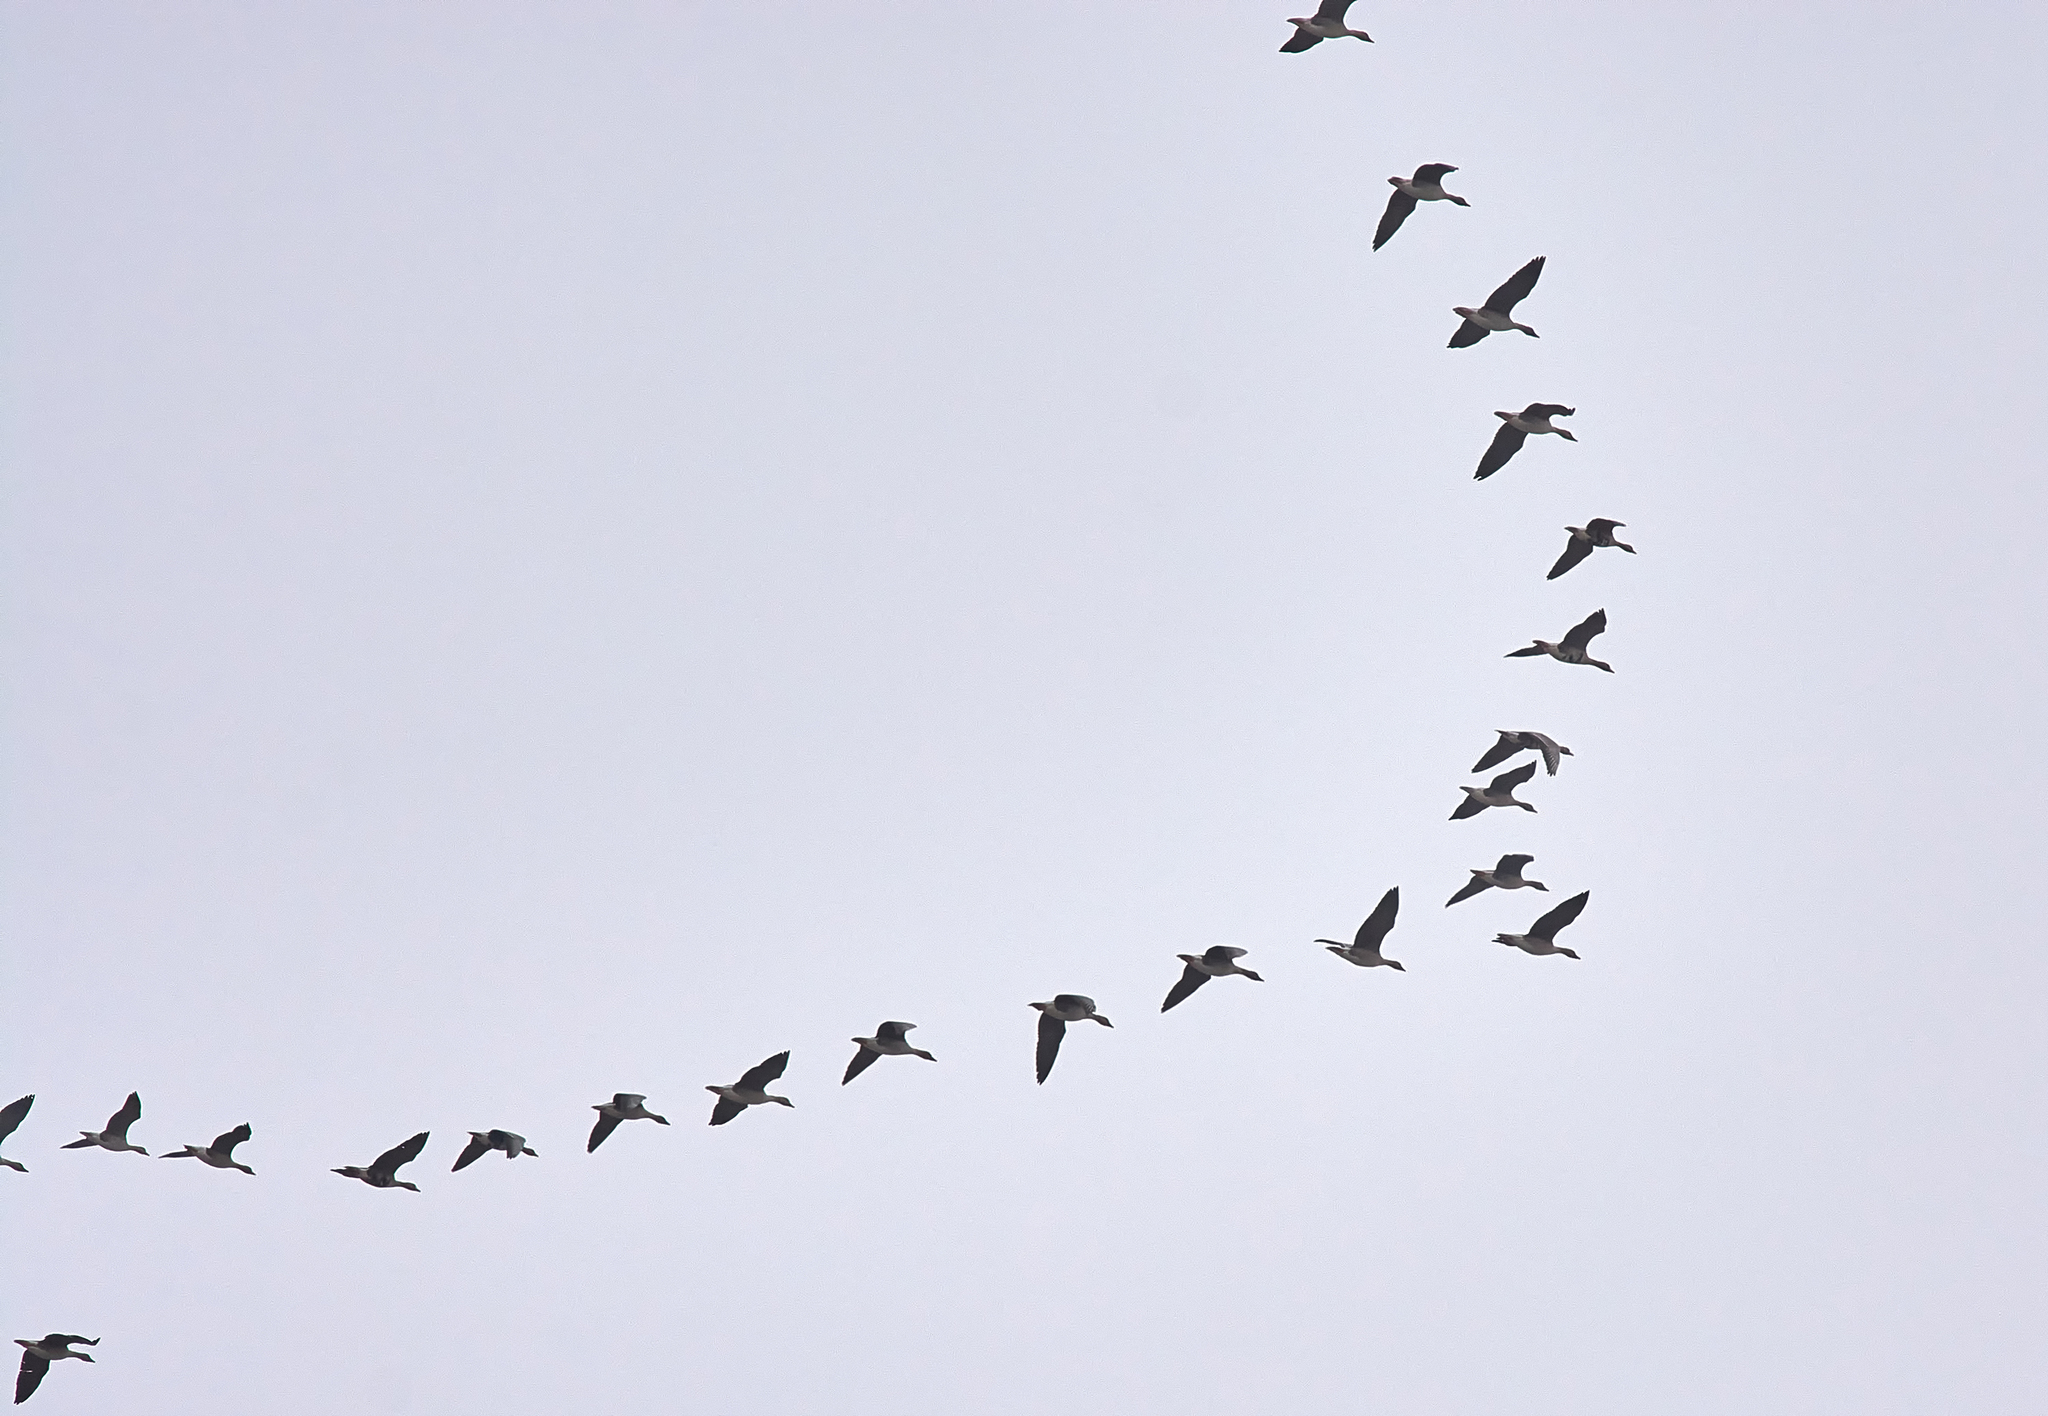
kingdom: Animalia
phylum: Chordata
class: Aves
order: Anseriformes
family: Anatidae
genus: Anser
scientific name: Anser albifrons
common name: Greater white-fronted goose
